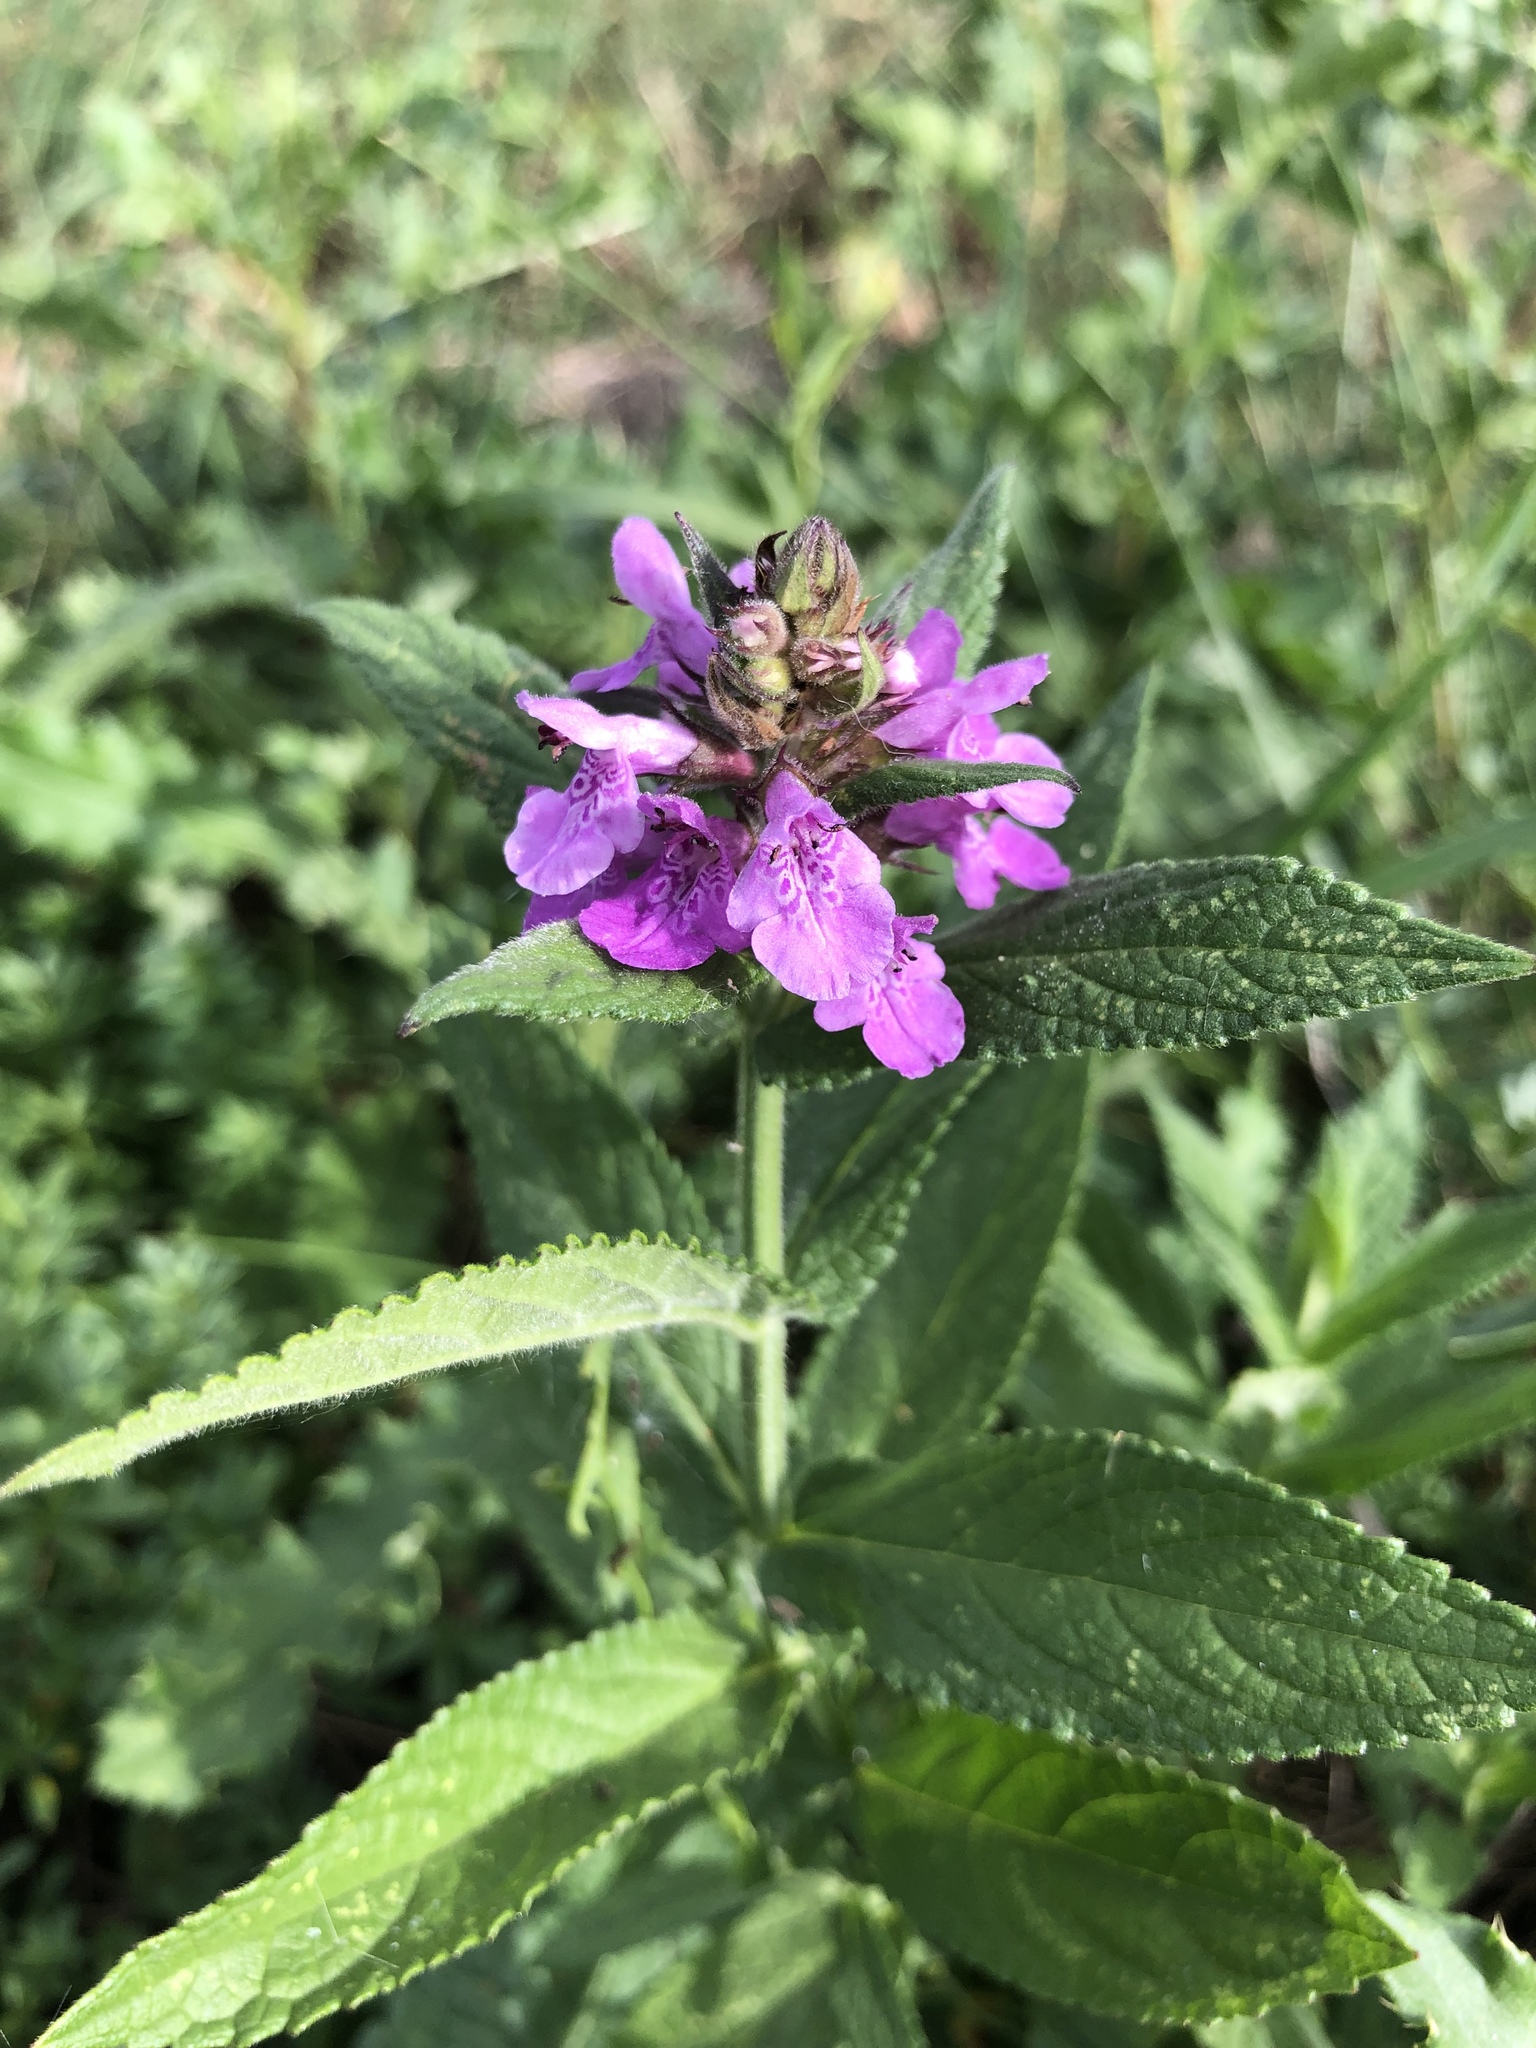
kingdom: Plantae
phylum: Tracheophyta
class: Magnoliopsida
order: Lamiales
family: Lamiaceae
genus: Stachys
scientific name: Stachys palustris
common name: Marsh woundwort
